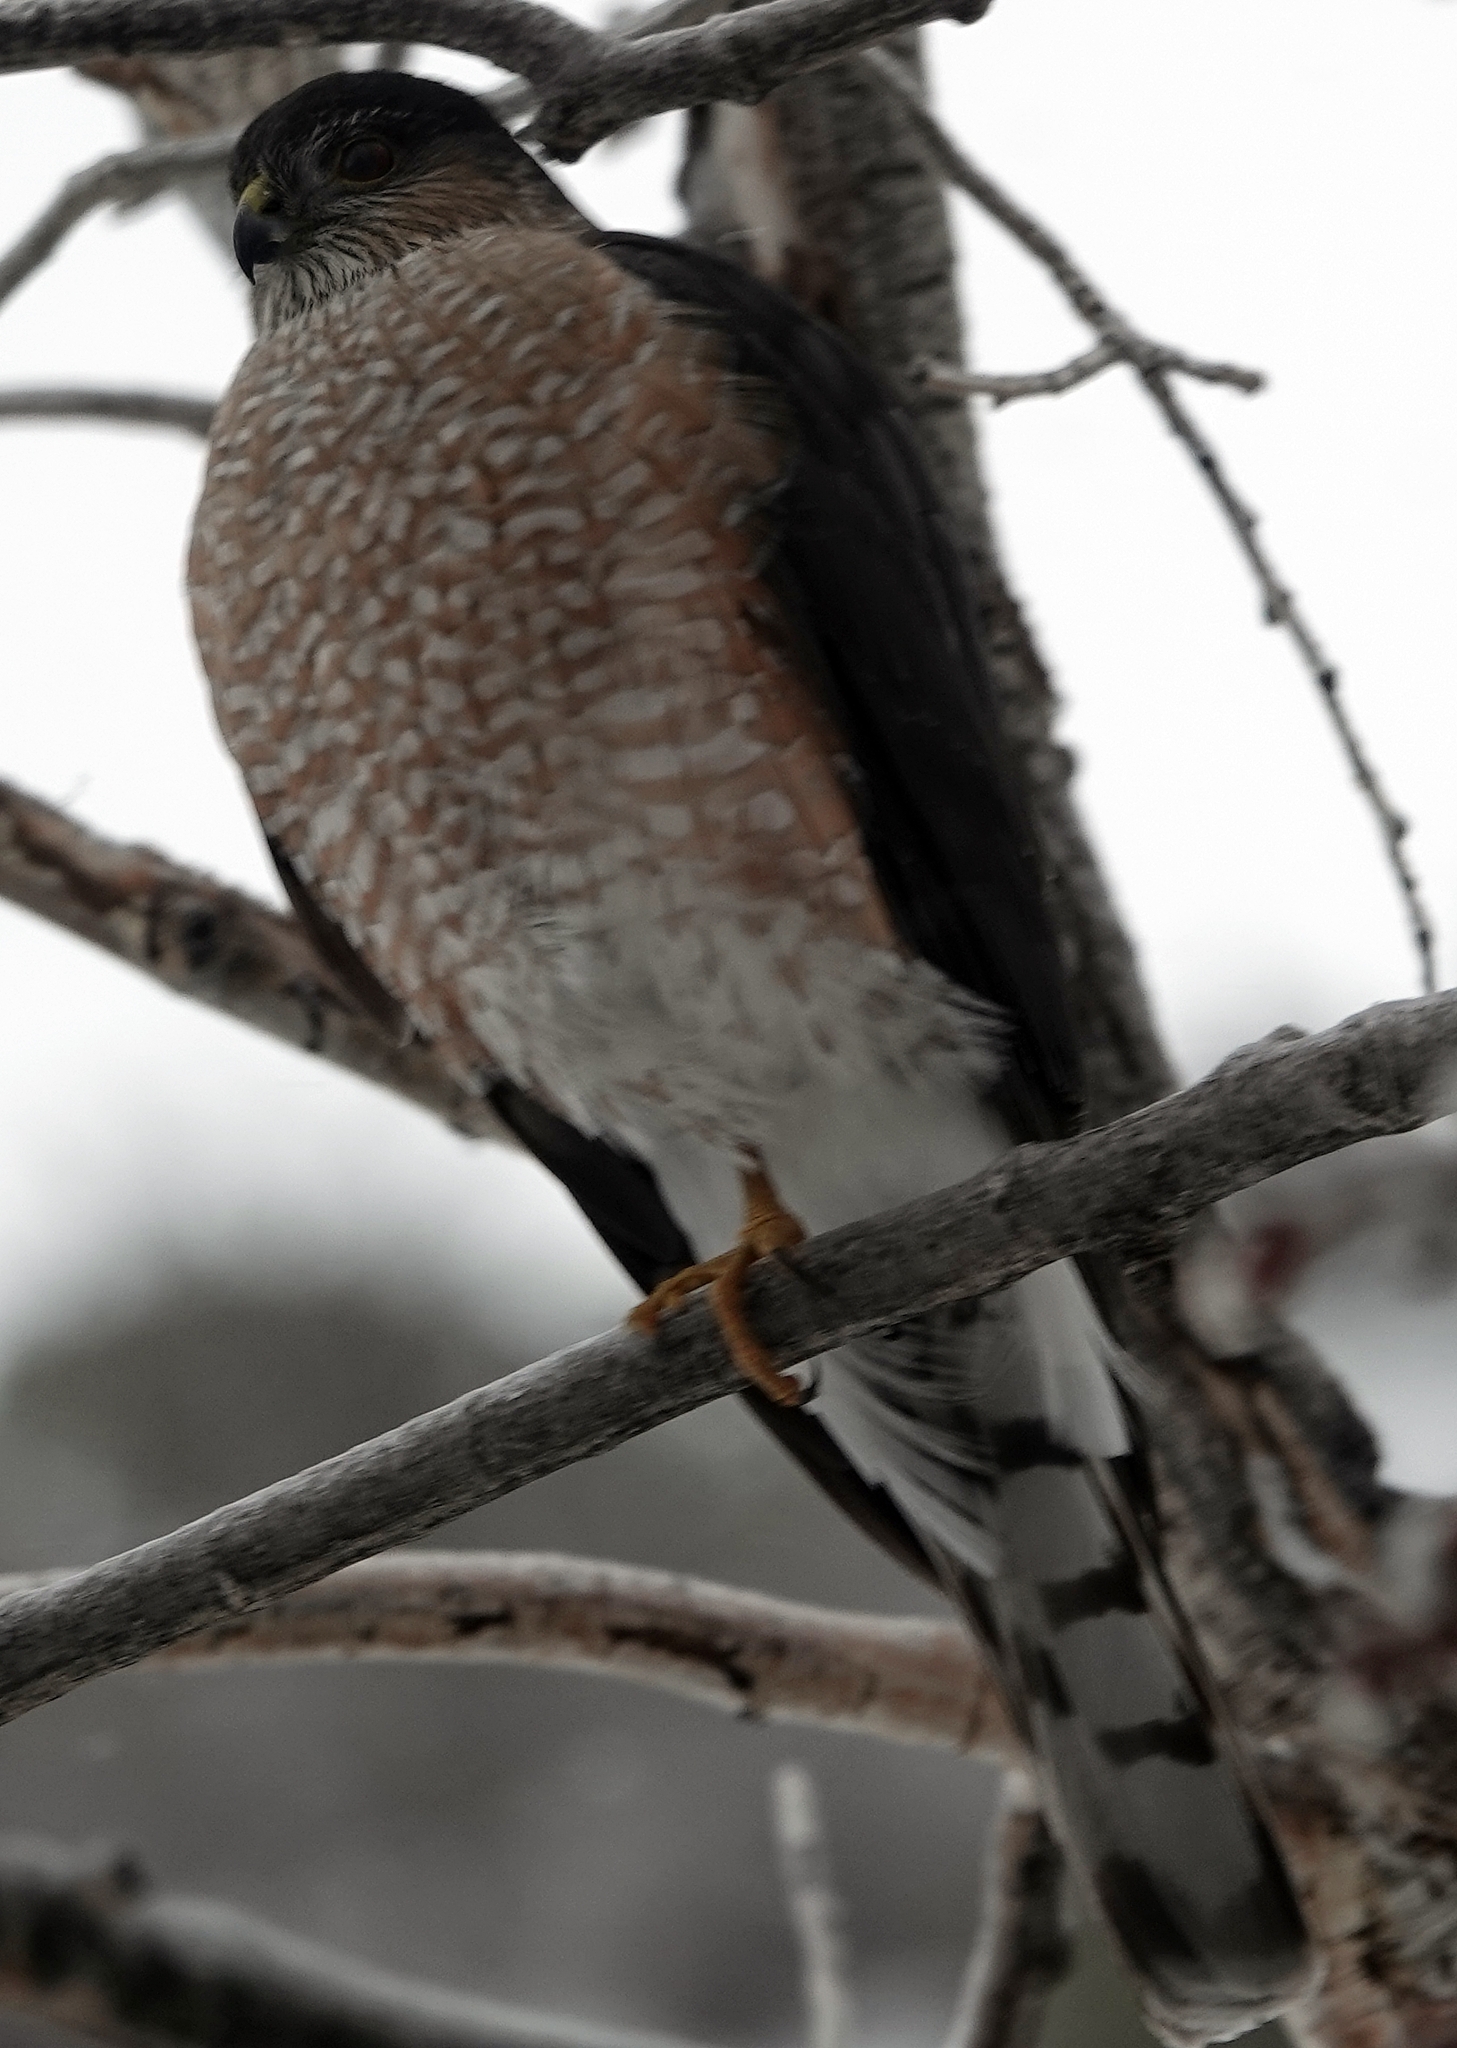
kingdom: Animalia
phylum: Chordata
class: Aves
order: Accipitriformes
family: Accipitridae
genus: Accipiter
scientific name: Accipiter striatus
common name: Sharp-shinned hawk
